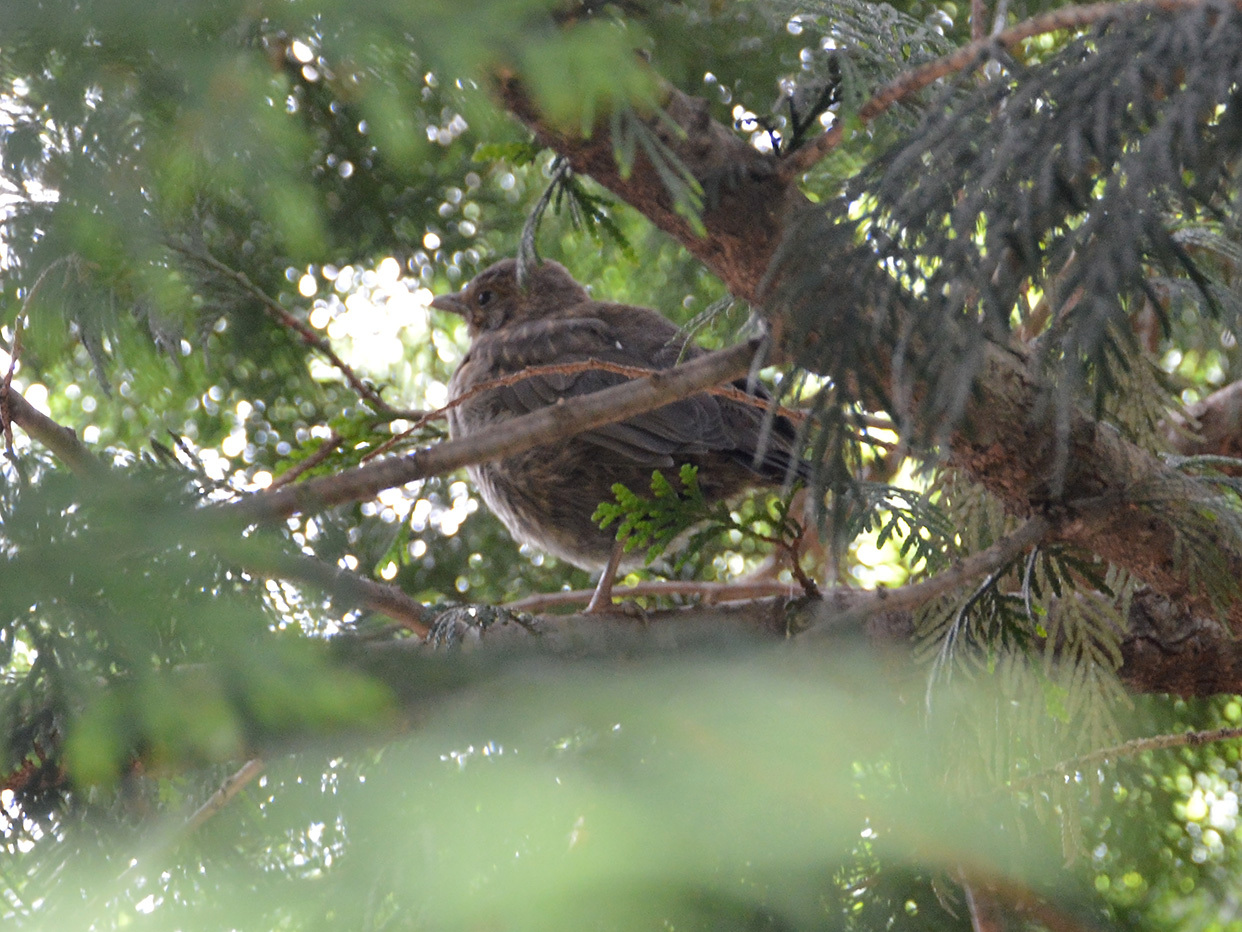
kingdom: Animalia
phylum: Chordata
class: Aves
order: Passeriformes
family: Turdidae
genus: Turdus
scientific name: Turdus merula
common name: Common blackbird
